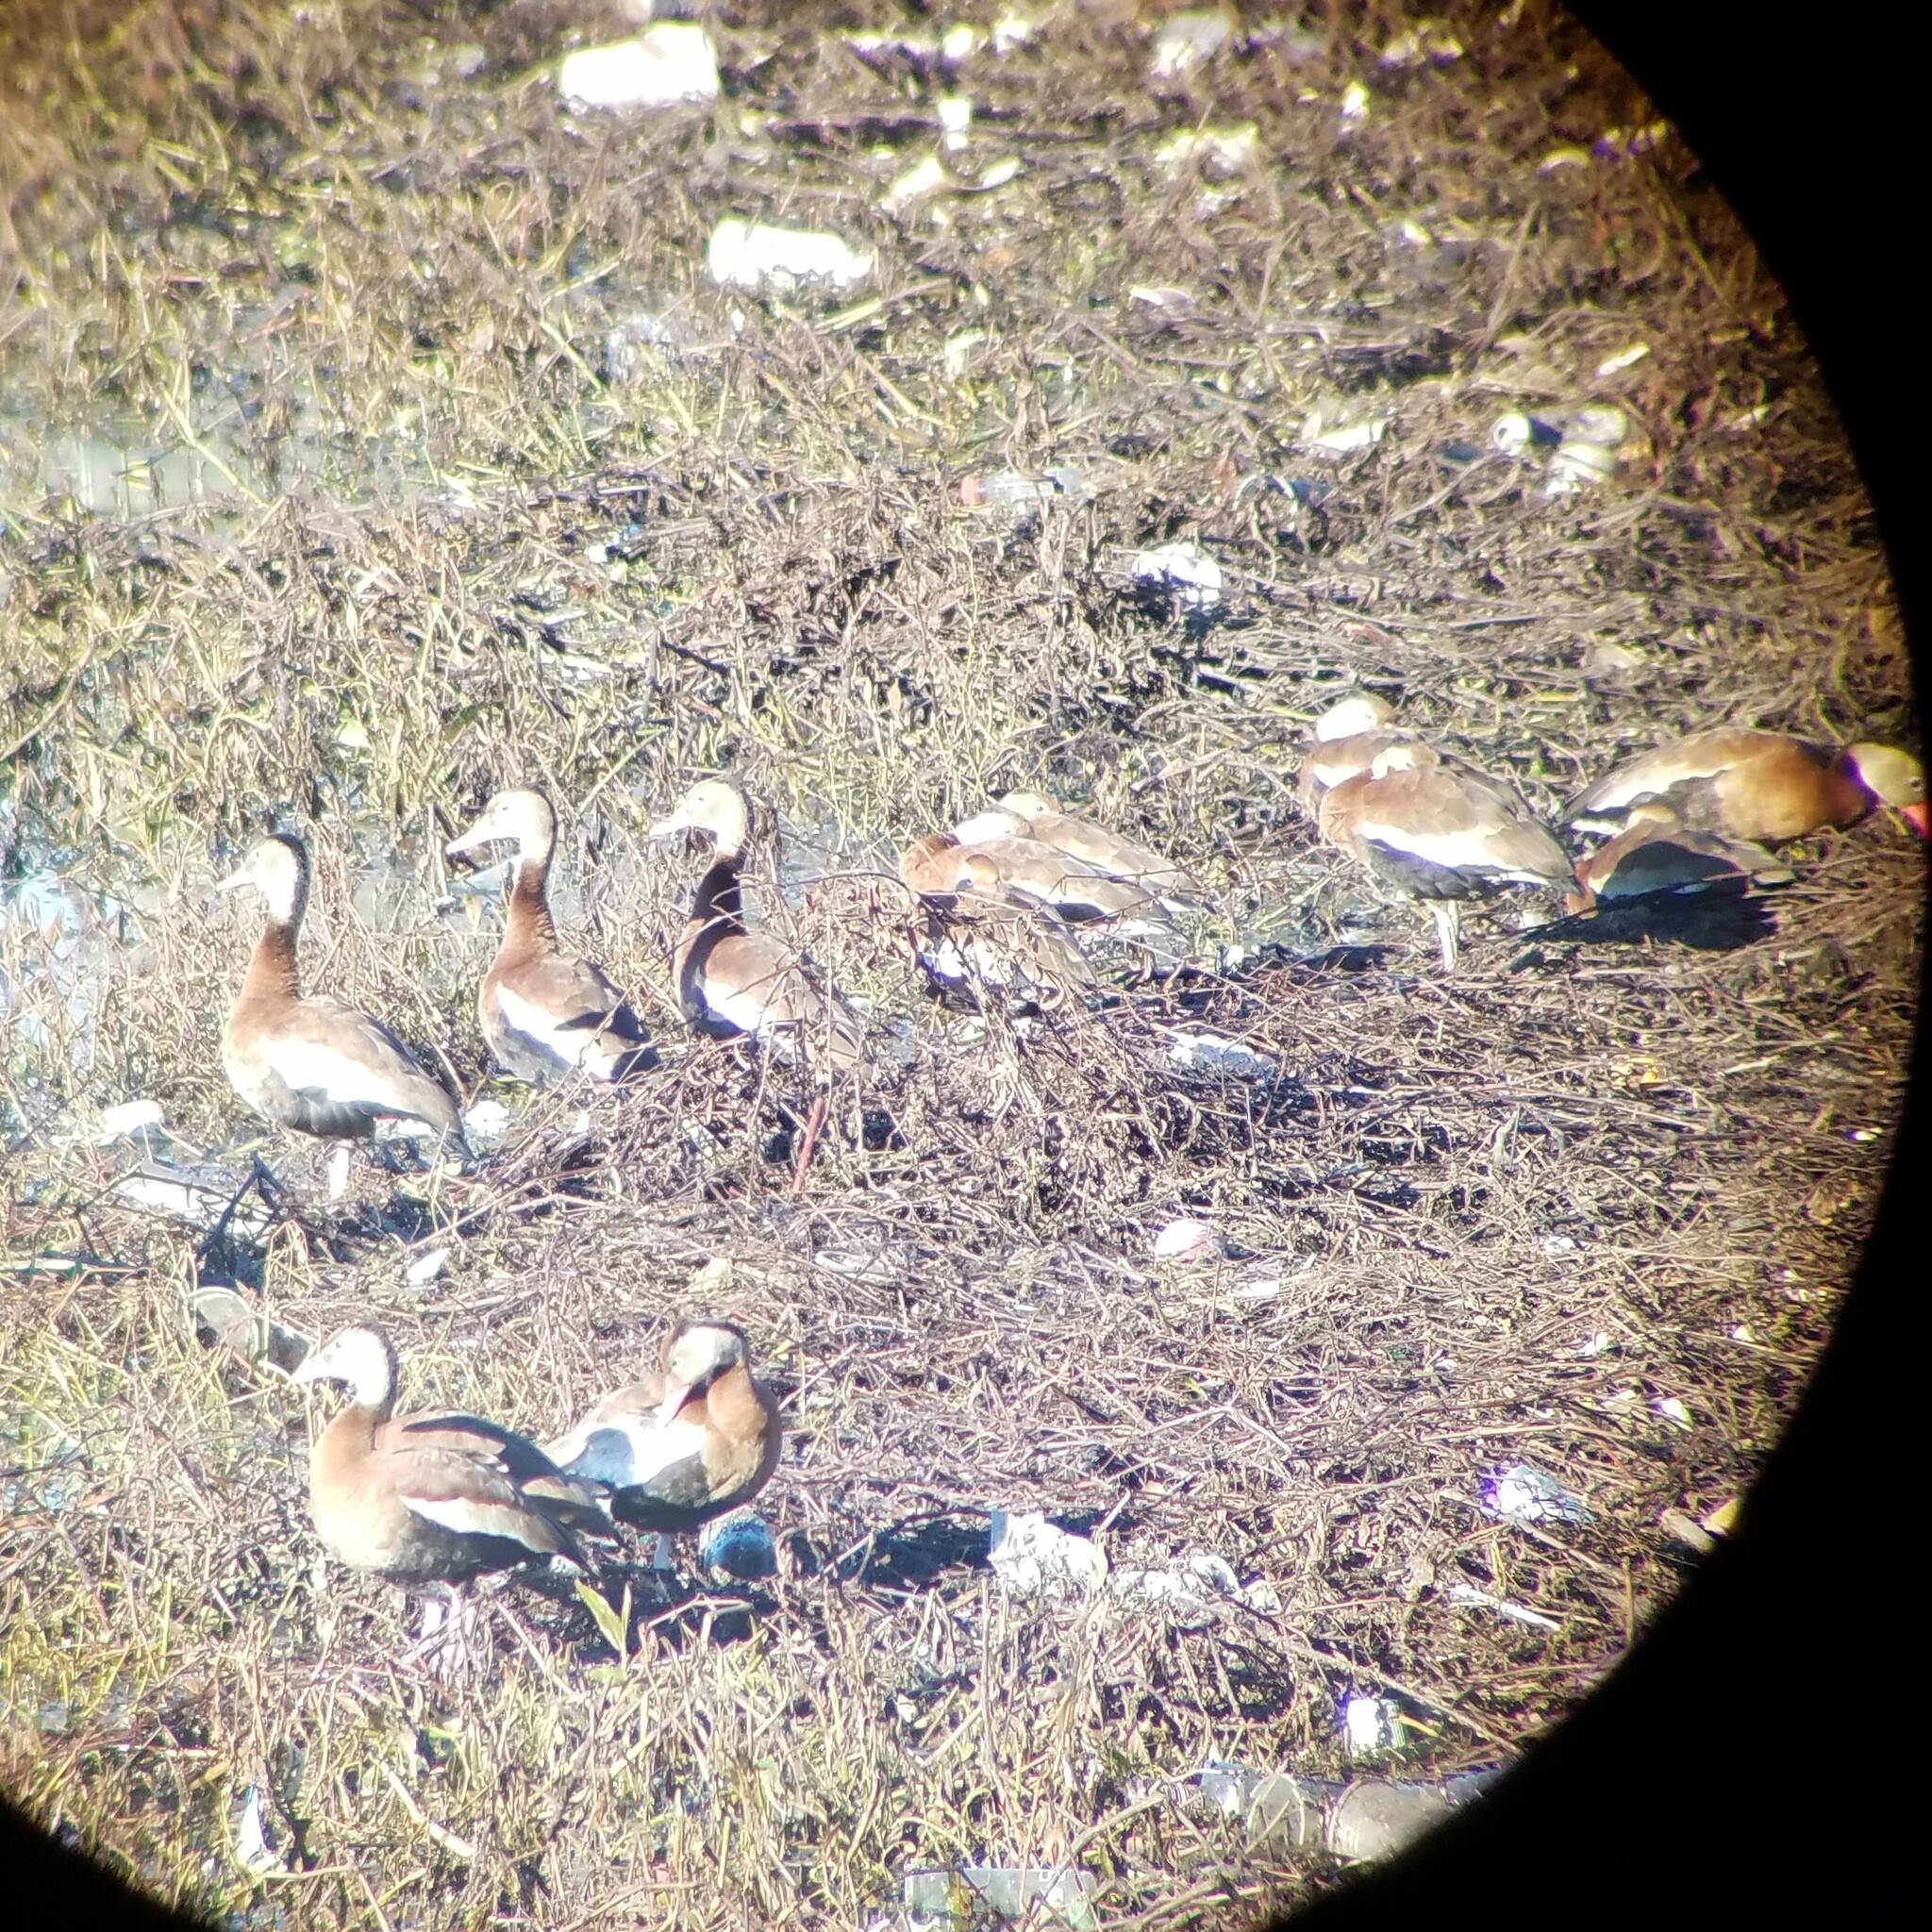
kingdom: Animalia
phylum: Chordata
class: Aves
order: Anseriformes
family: Anatidae
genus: Dendrocygna
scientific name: Dendrocygna autumnalis
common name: Black-bellied whistling duck
